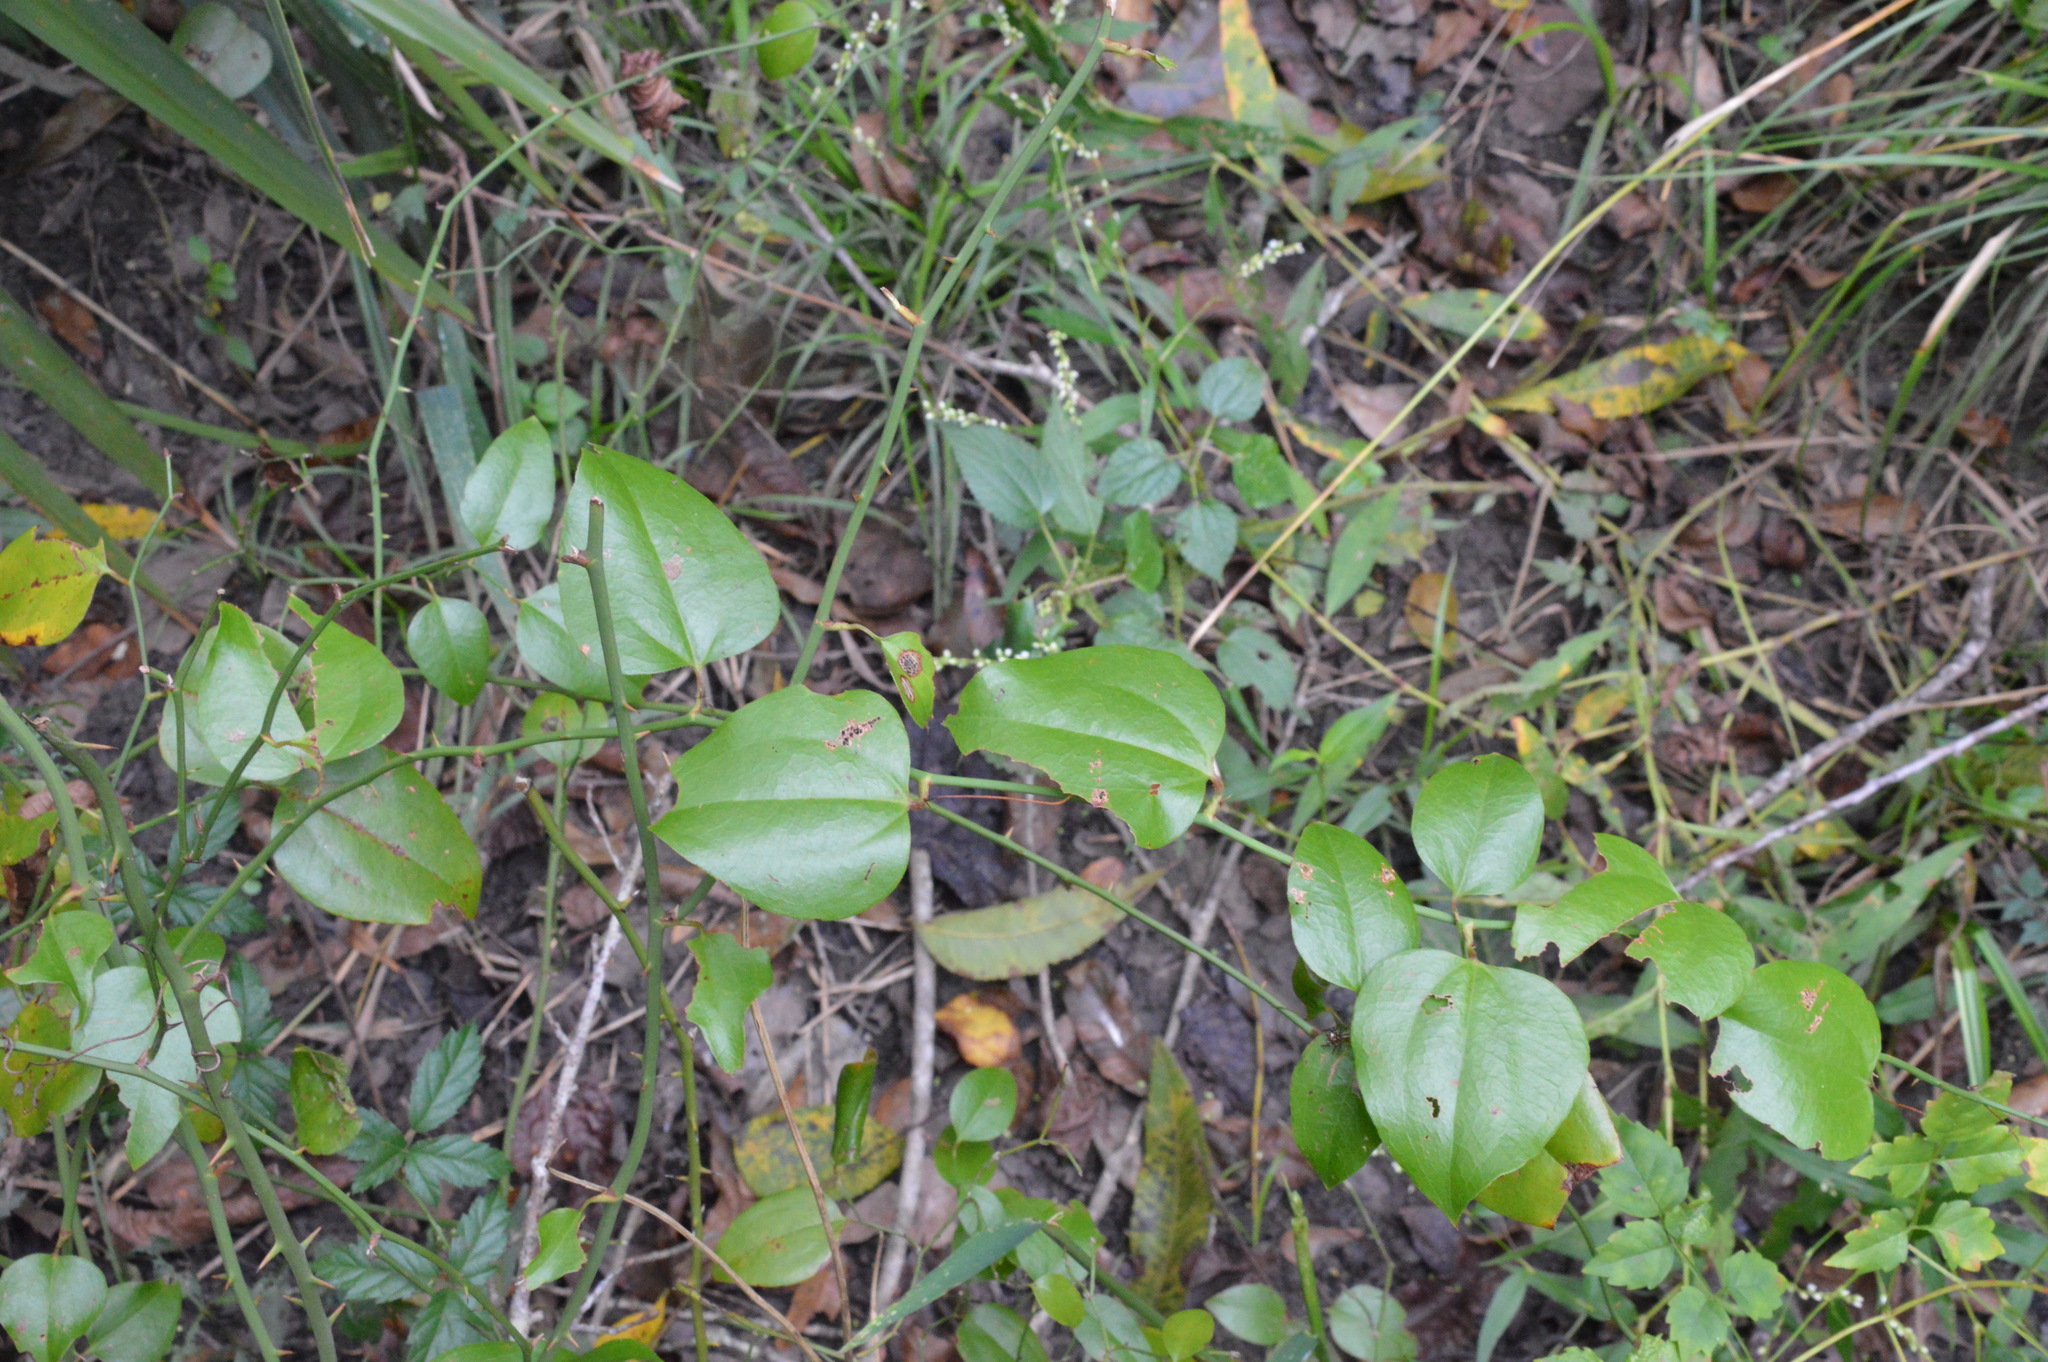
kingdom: Plantae
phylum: Tracheophyta
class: Liliopsida
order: Liliales
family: Smilacaceae
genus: Smilax
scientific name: Smilax rotundifolia
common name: Bullbriar
